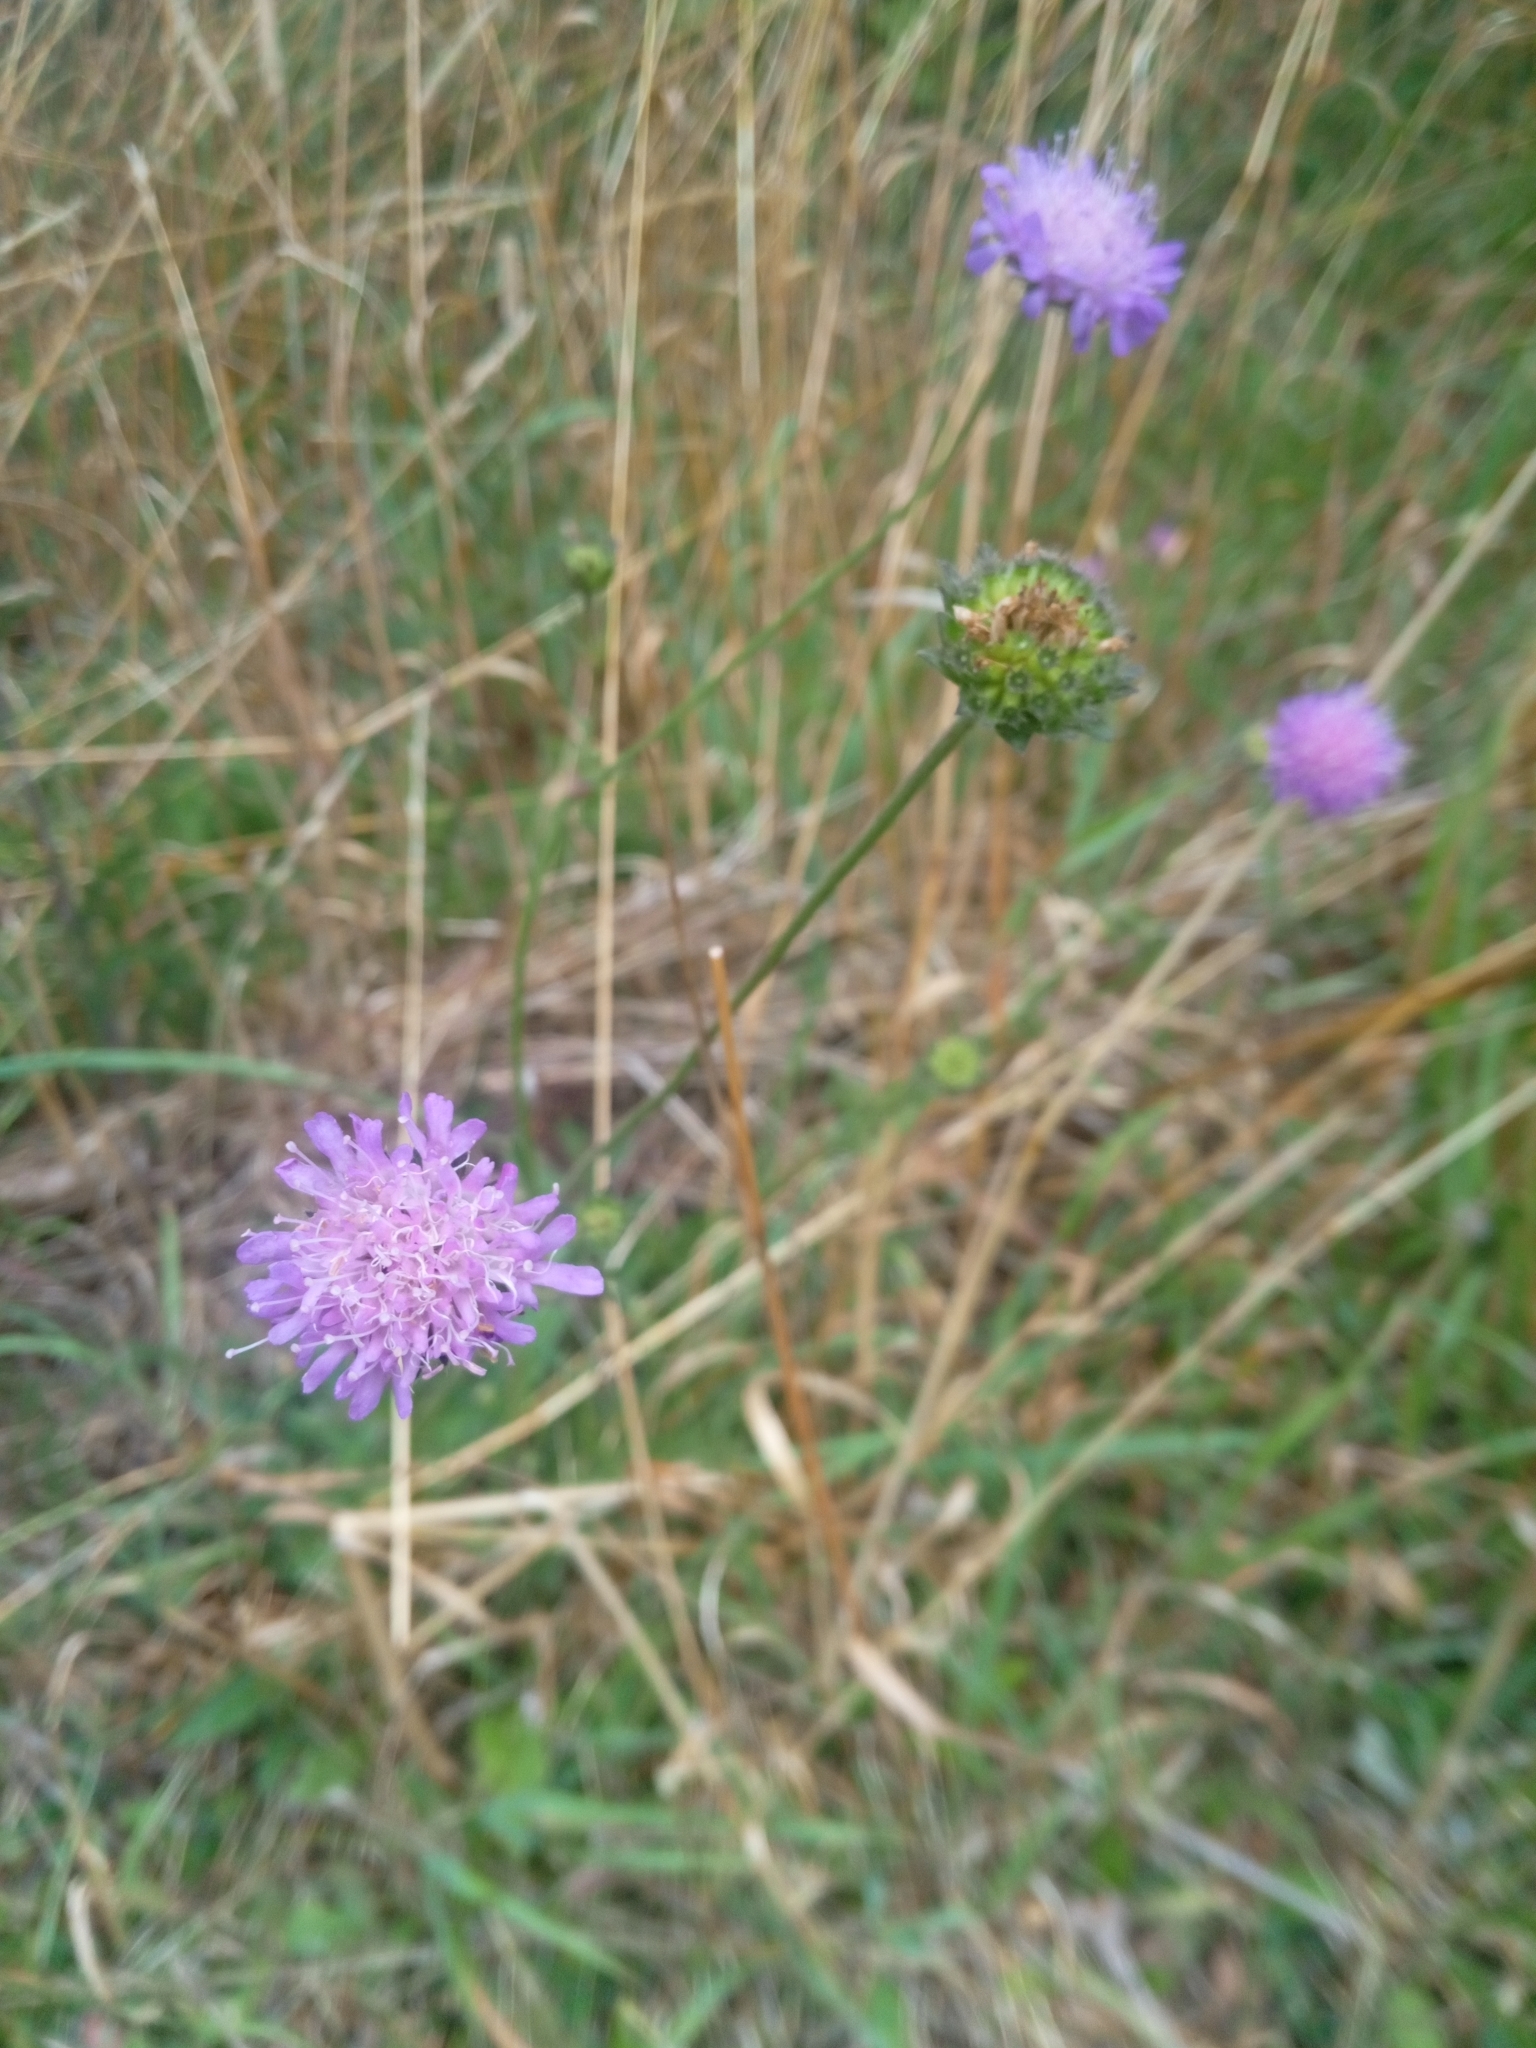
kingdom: Plantae
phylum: Tracheophyta
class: Magnoliopsida
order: Dipsacales
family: Caprifoliaceae
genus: Knautia
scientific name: Knautia arvensis
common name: Field scabiosa
